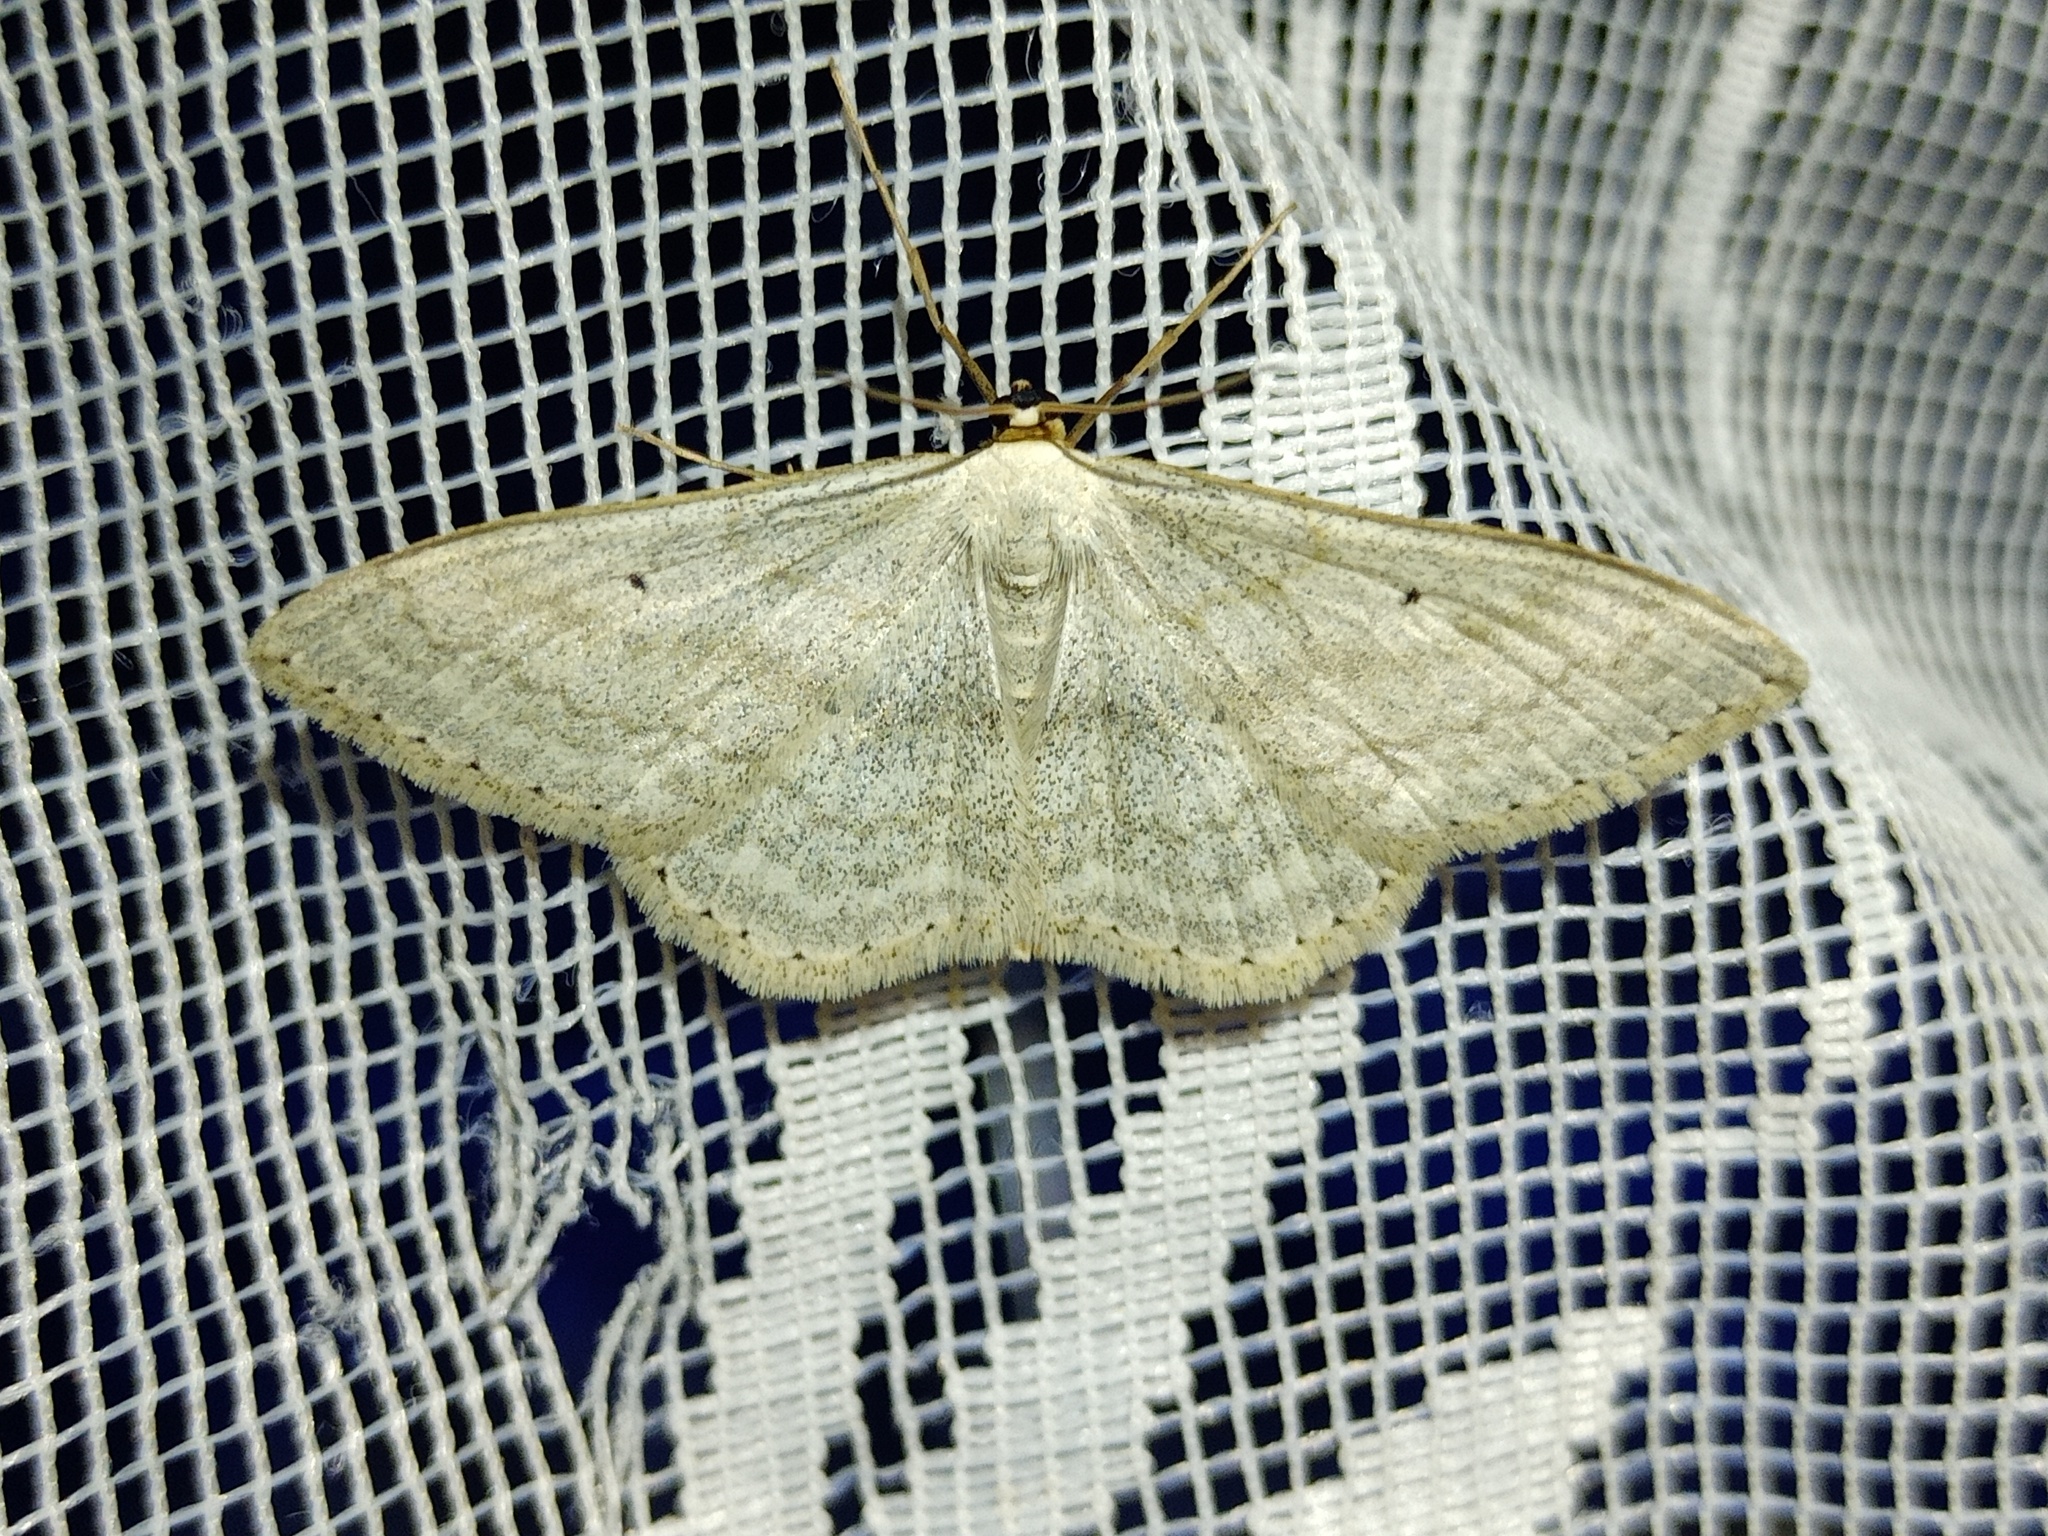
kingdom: Animalia
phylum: Arthropoda
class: Insecta
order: Lepidoptera
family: Geometridae
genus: Scopula
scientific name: Scopula incanata
